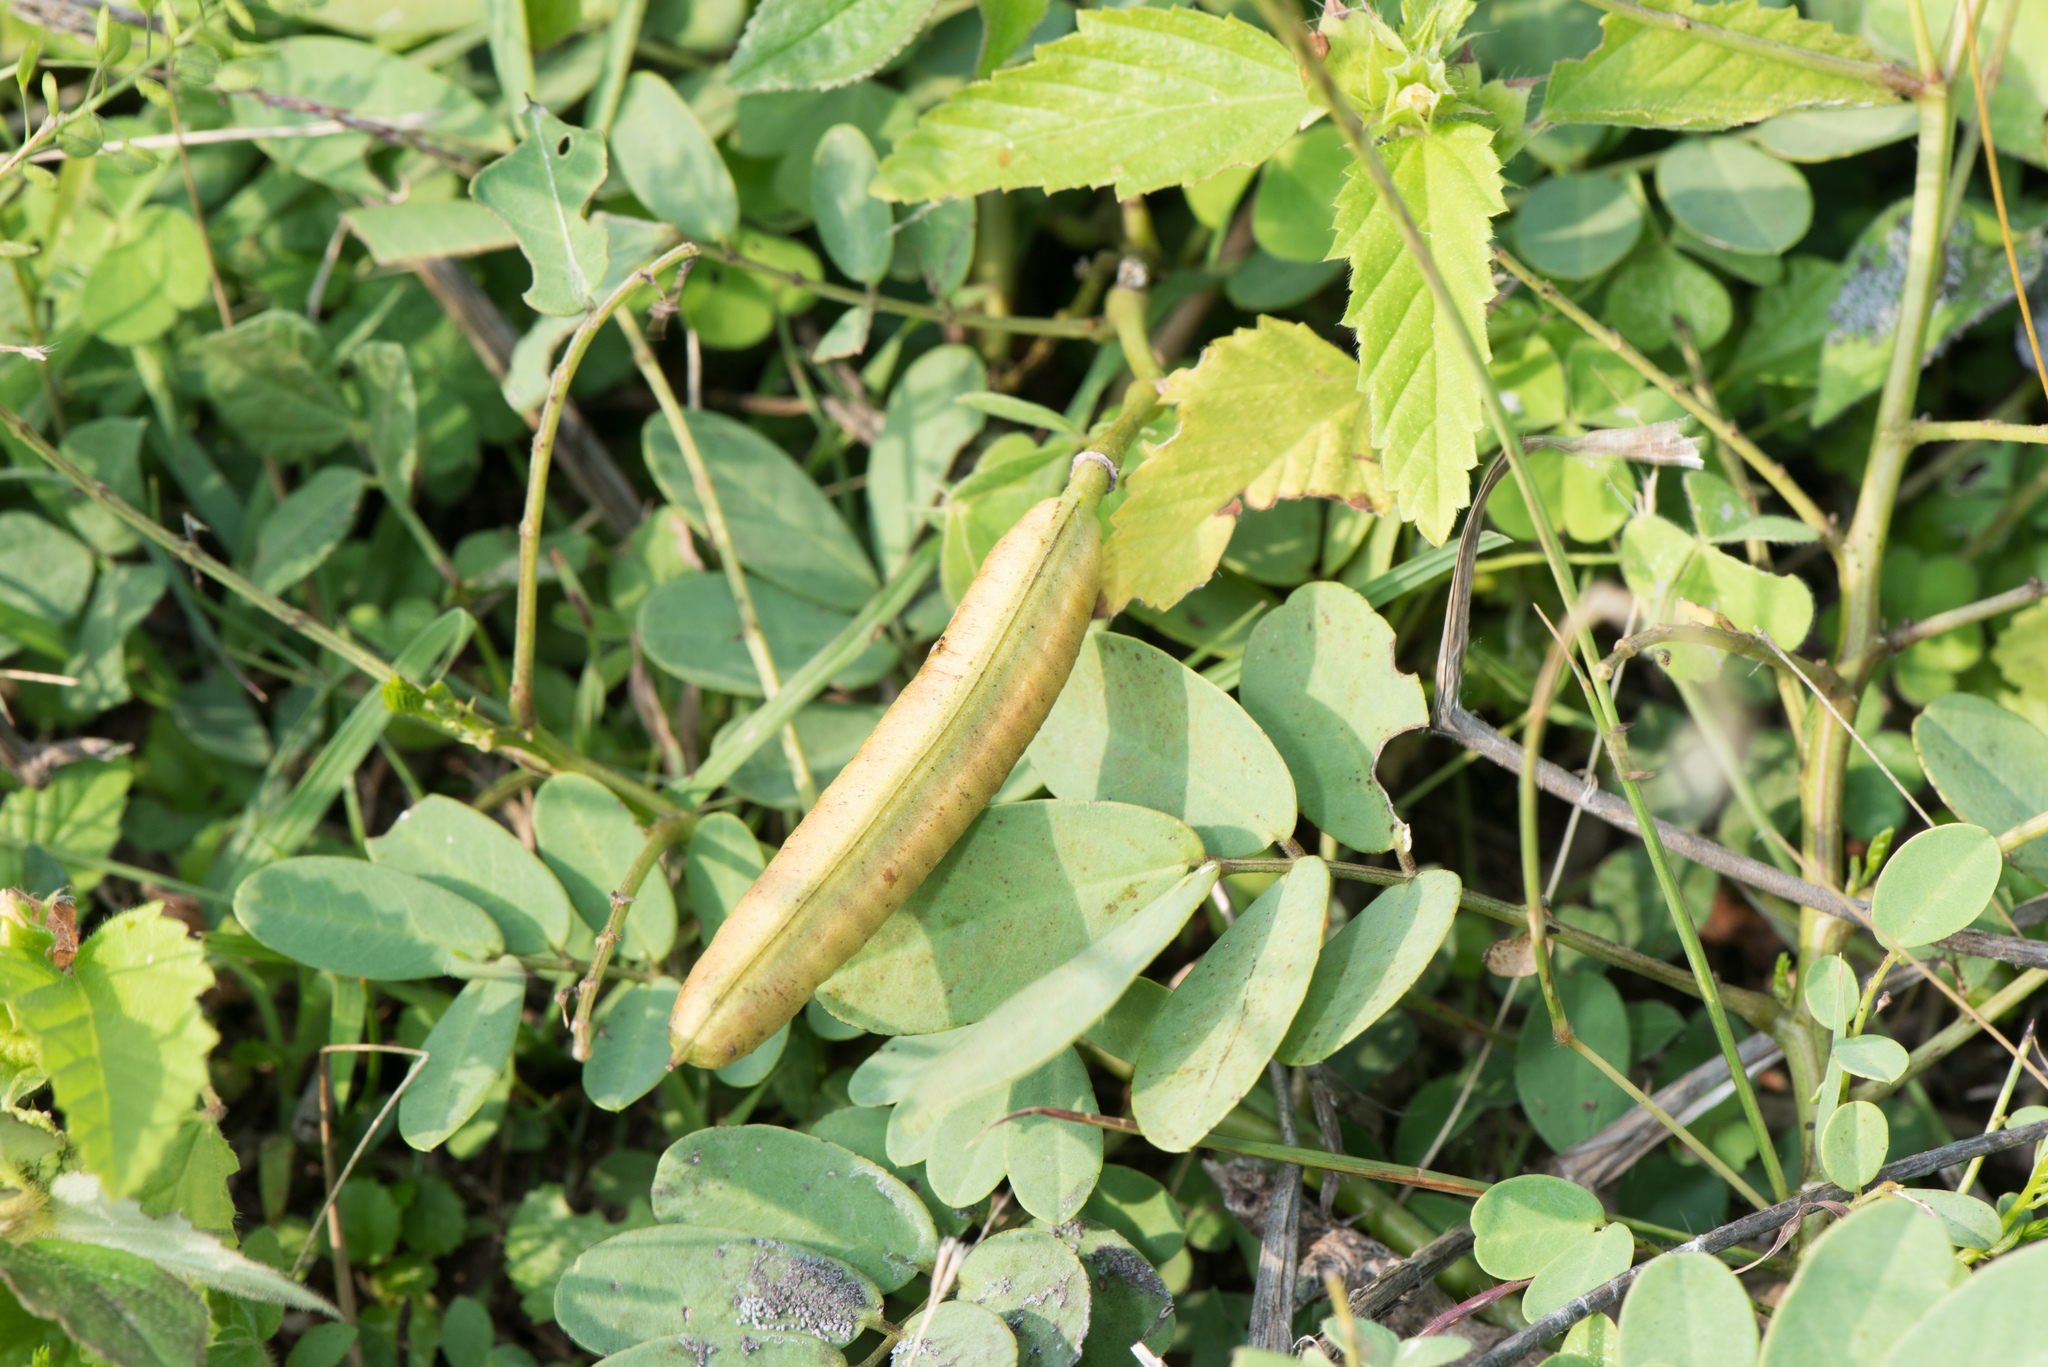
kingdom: Plantae
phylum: Tracheophyta
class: Magnoliopsida
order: Fabales
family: Fabaceae
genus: Senna
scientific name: Senna sophera
